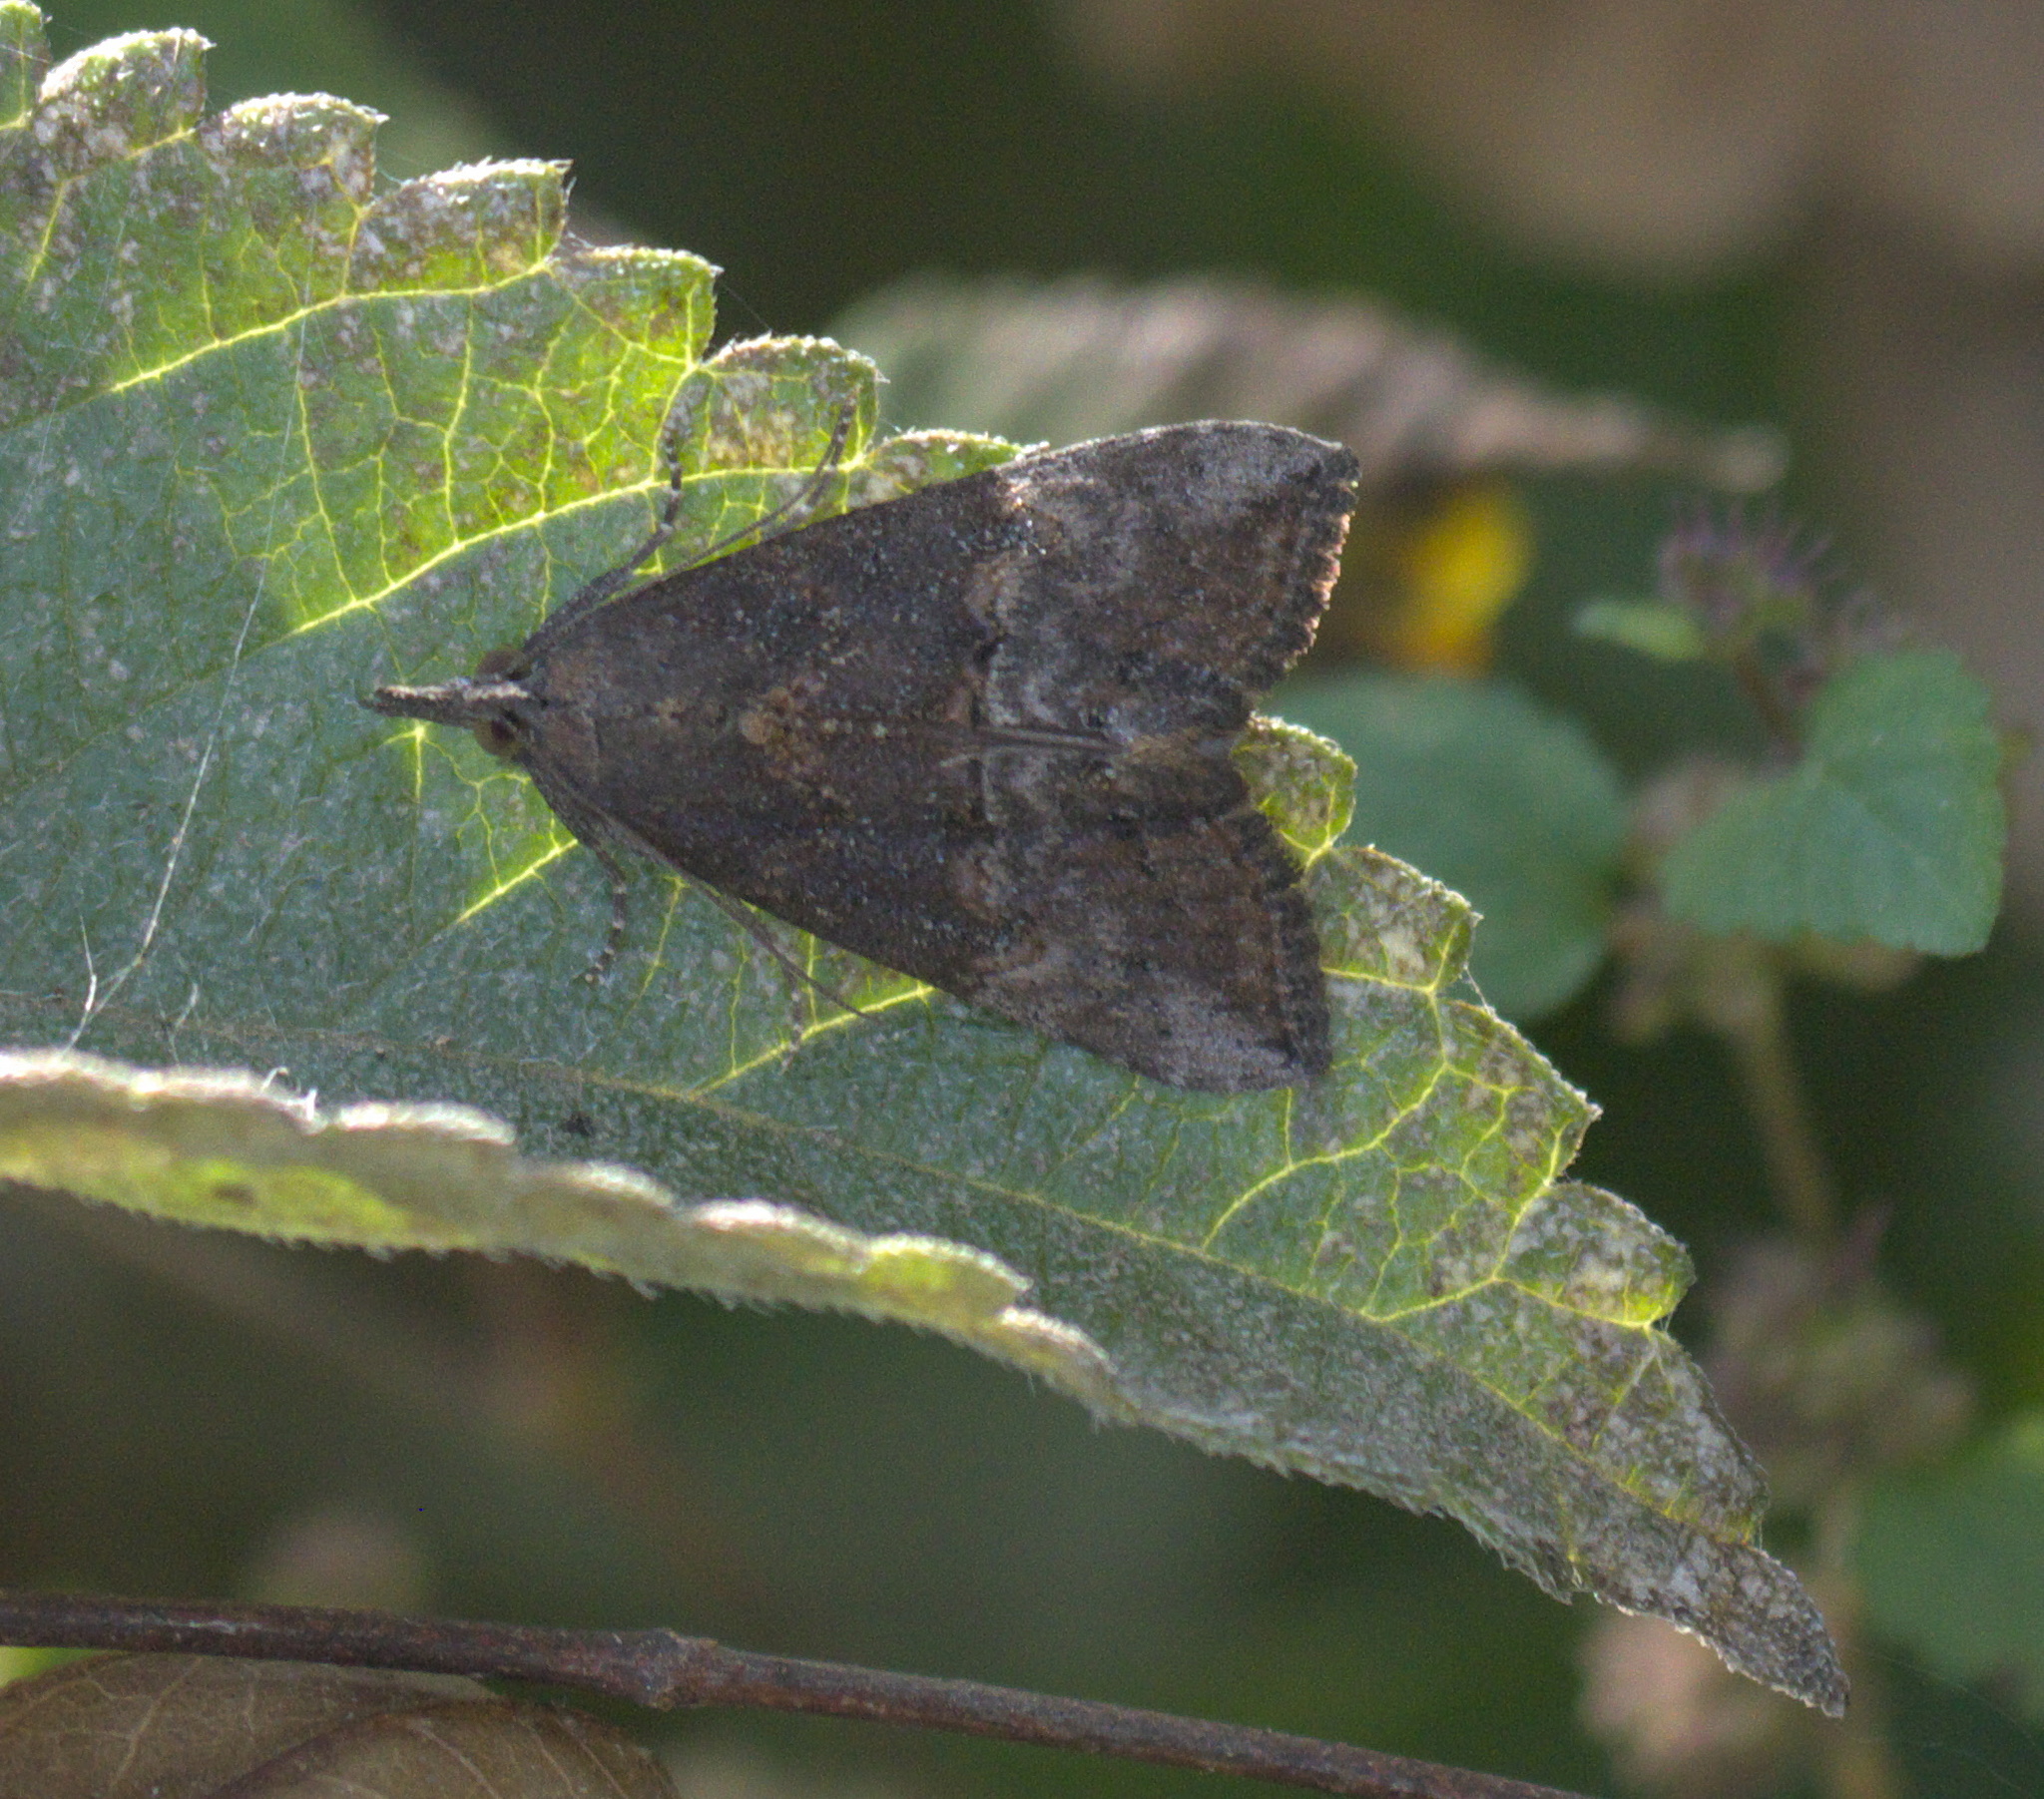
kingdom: Animalia
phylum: Arthropoda
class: Insecta
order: Lepidoptera
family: Erebidae
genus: Hypena
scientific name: Hypena scabra
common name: Green cloverworm
